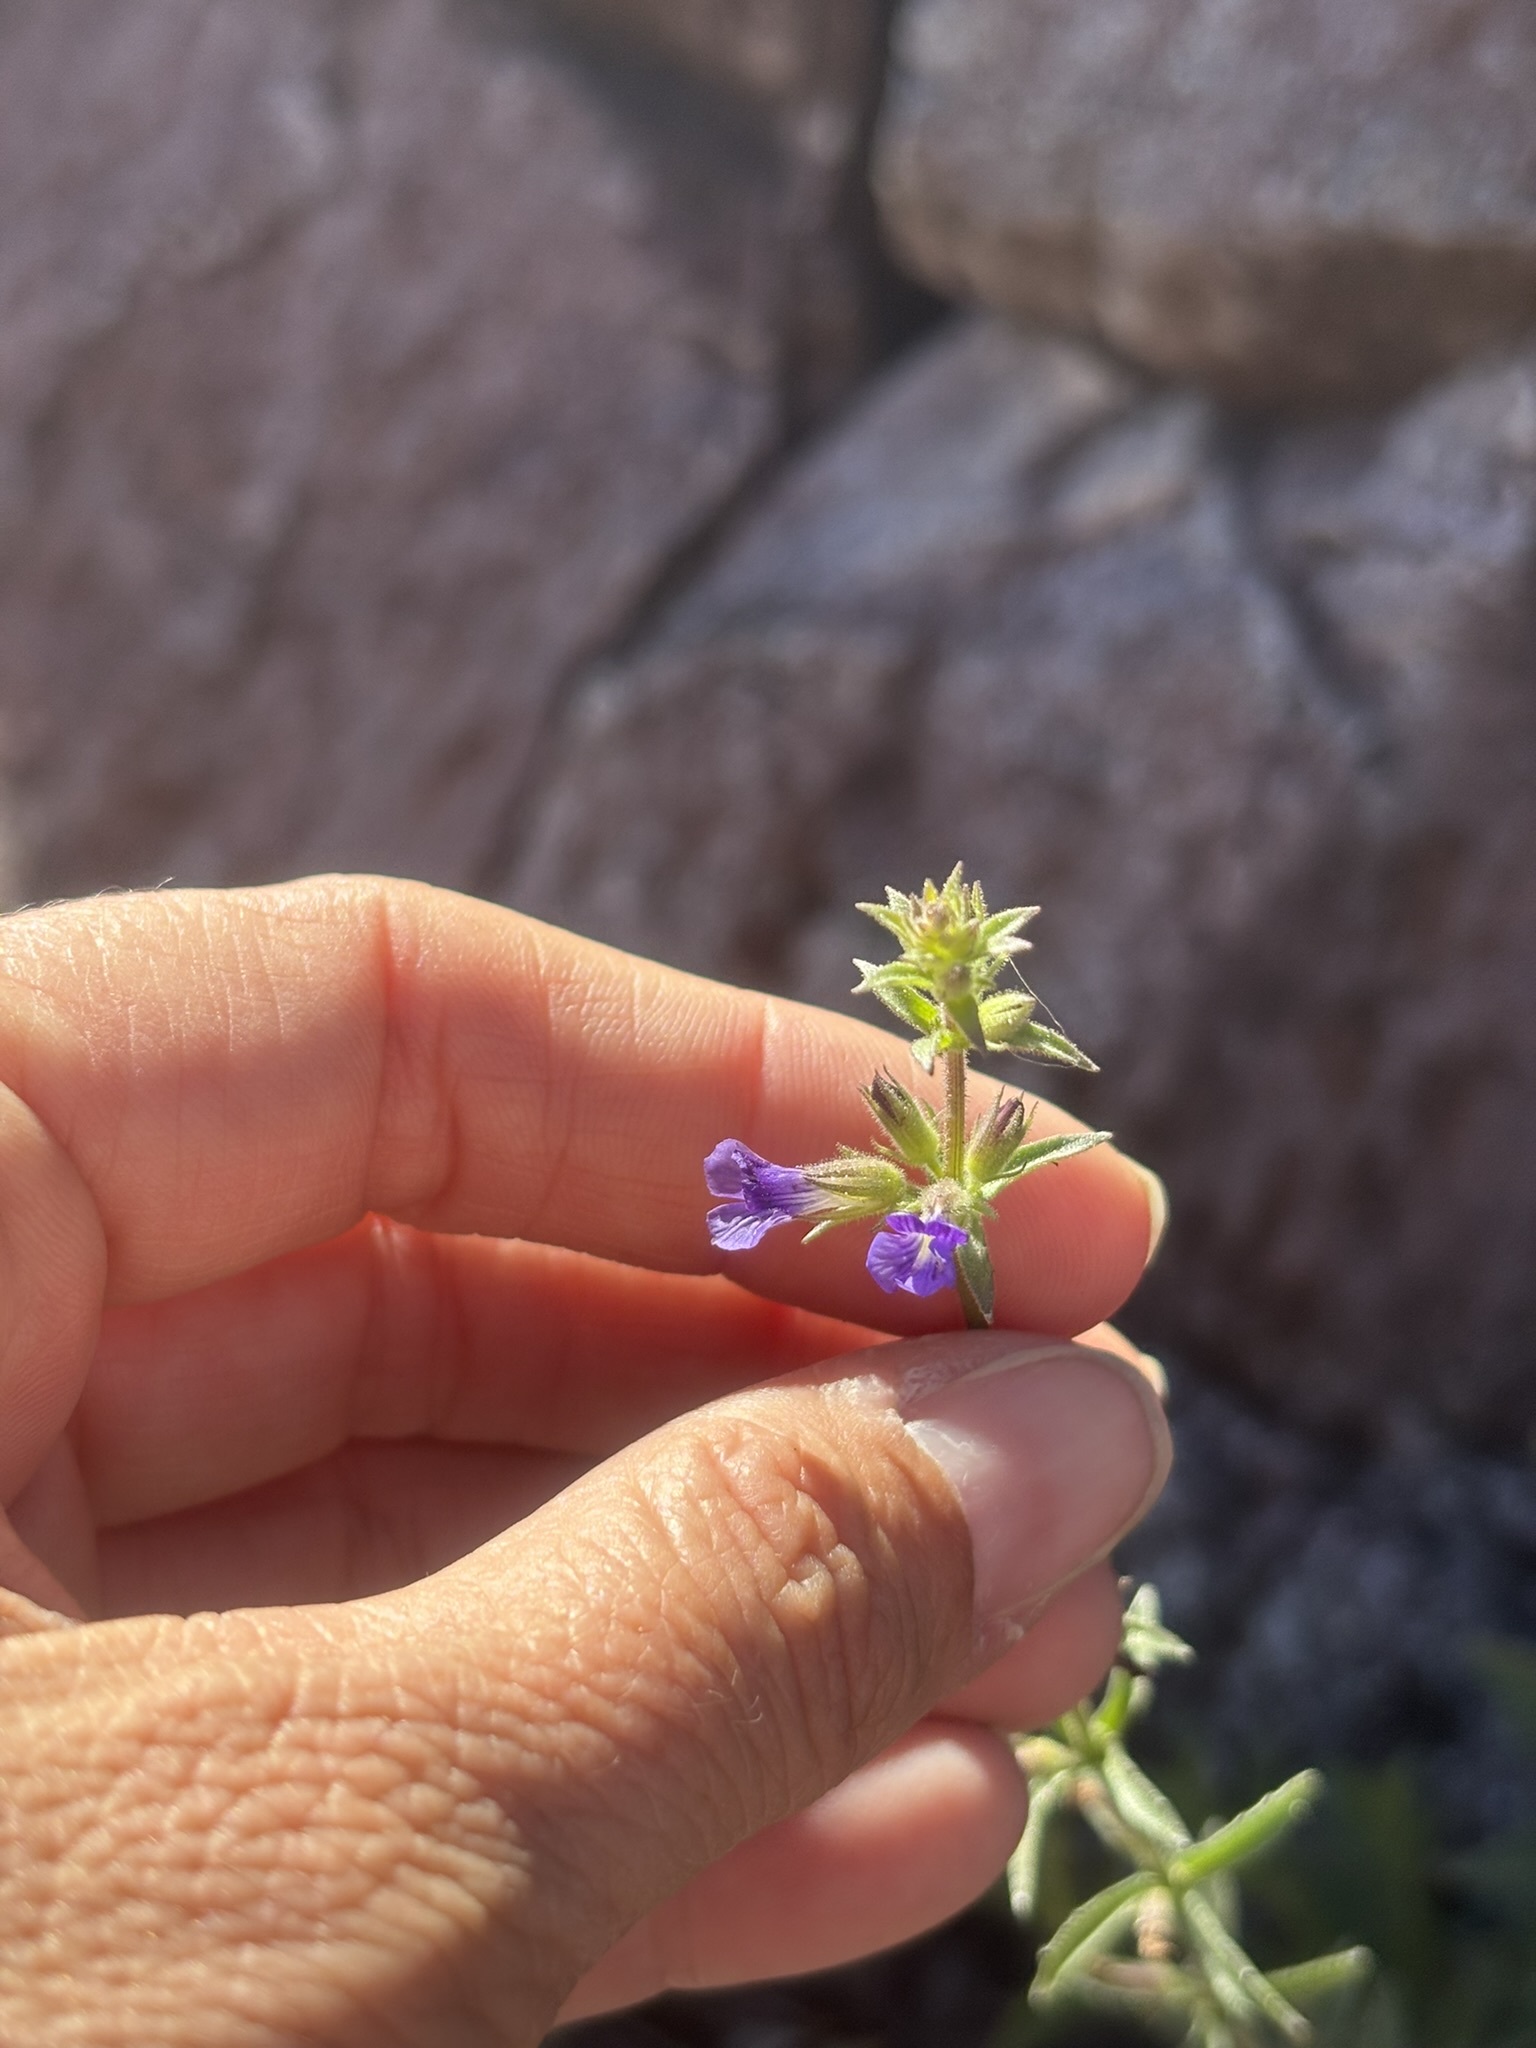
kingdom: Plantae
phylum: Tracheophyta
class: Magnoliopsida
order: Lamiales
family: Plantaginaceae
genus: Stemodia
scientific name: Stemodia durantifolia
